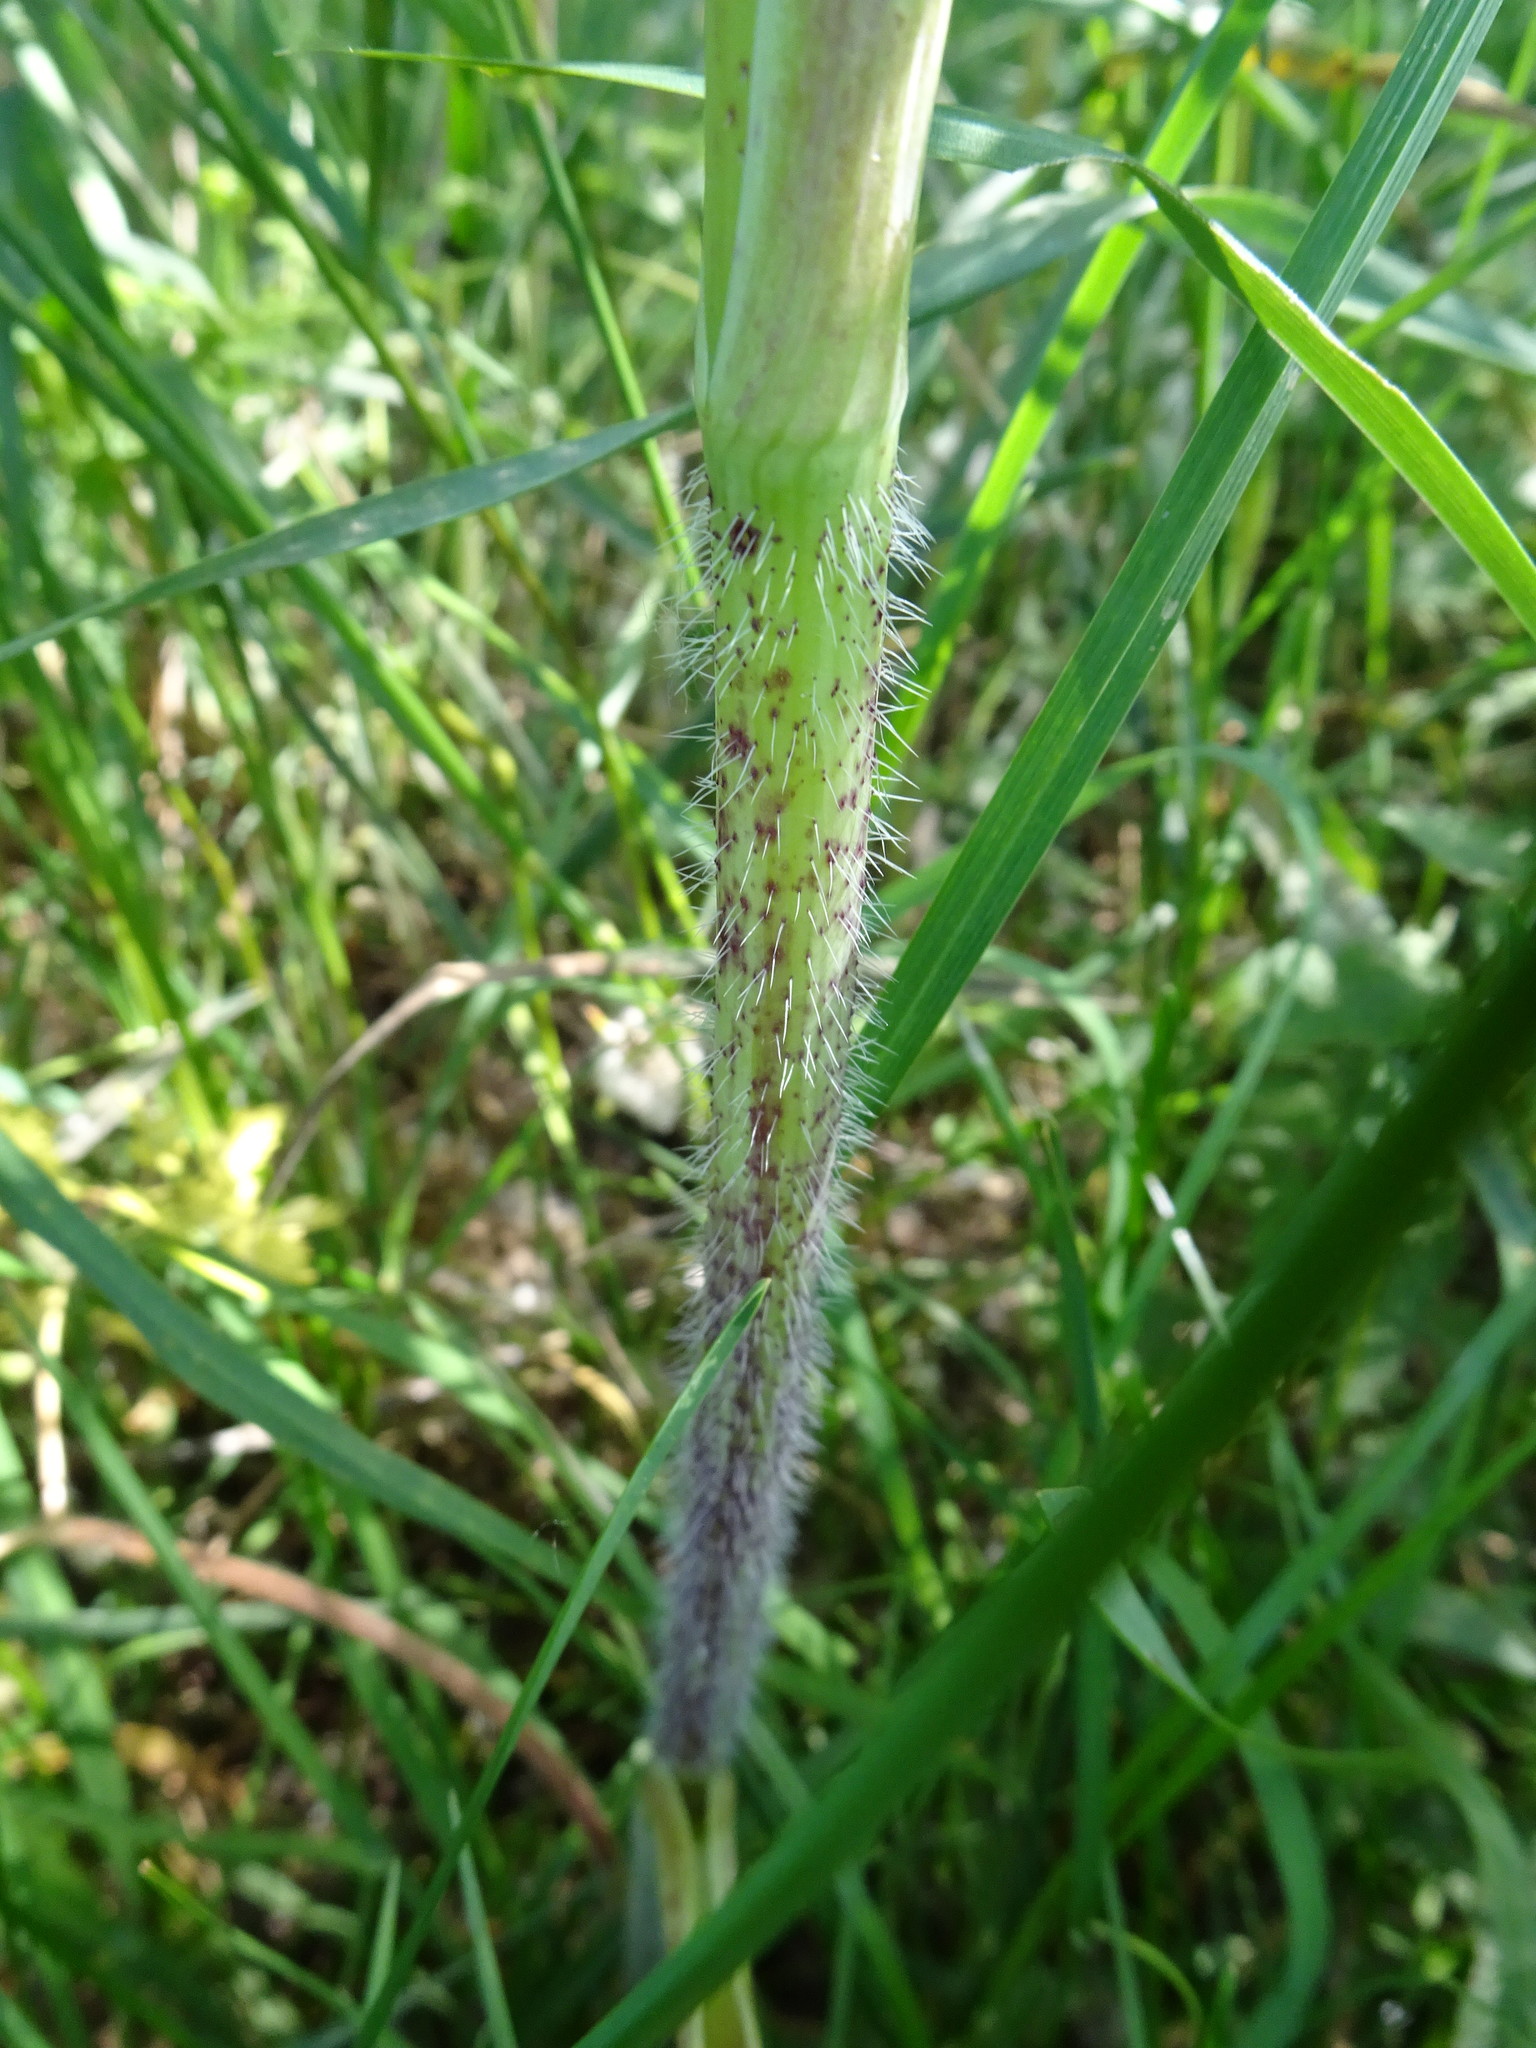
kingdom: Plantae
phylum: Tracheophyta
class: Magnoliopsida
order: Apiales
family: Apiaceae
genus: Chaerophyllum
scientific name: Chaerophyllum bulbosum
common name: Bulbous chervil
